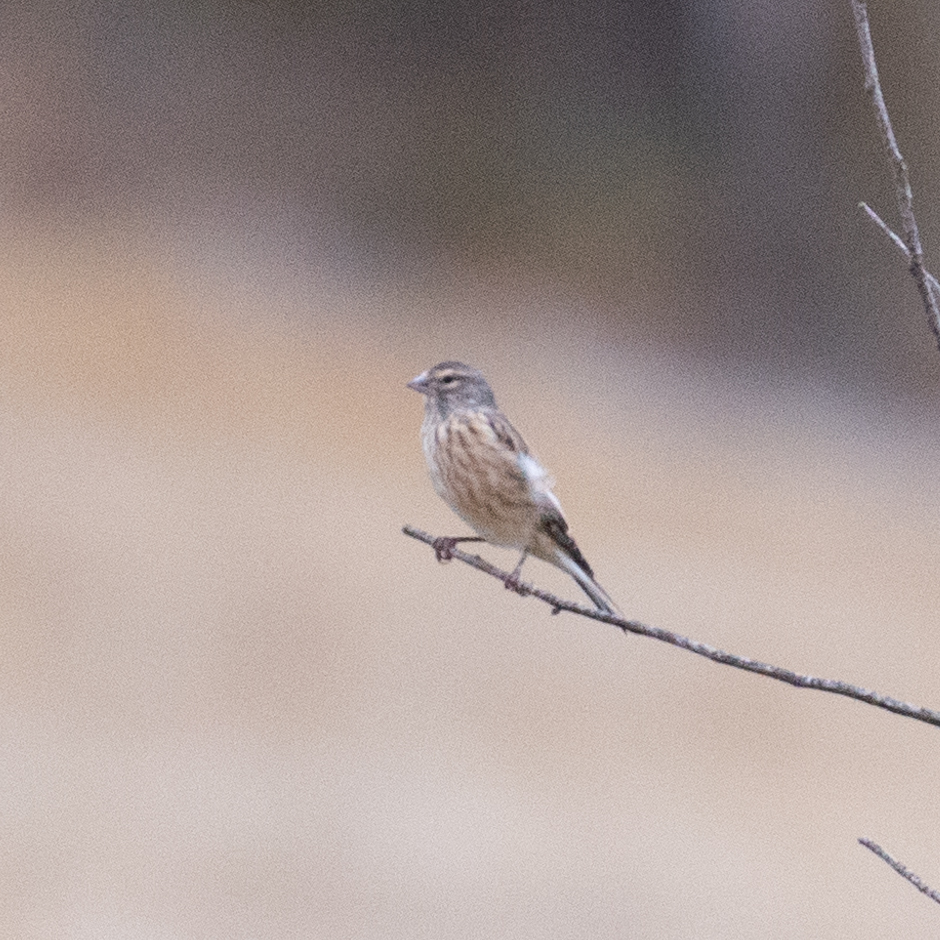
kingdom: Animalia
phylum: Chordata
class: Aves
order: Passeriformes
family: Fringillidae
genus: Linaria
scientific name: Linaria cannabina
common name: Common linnet
